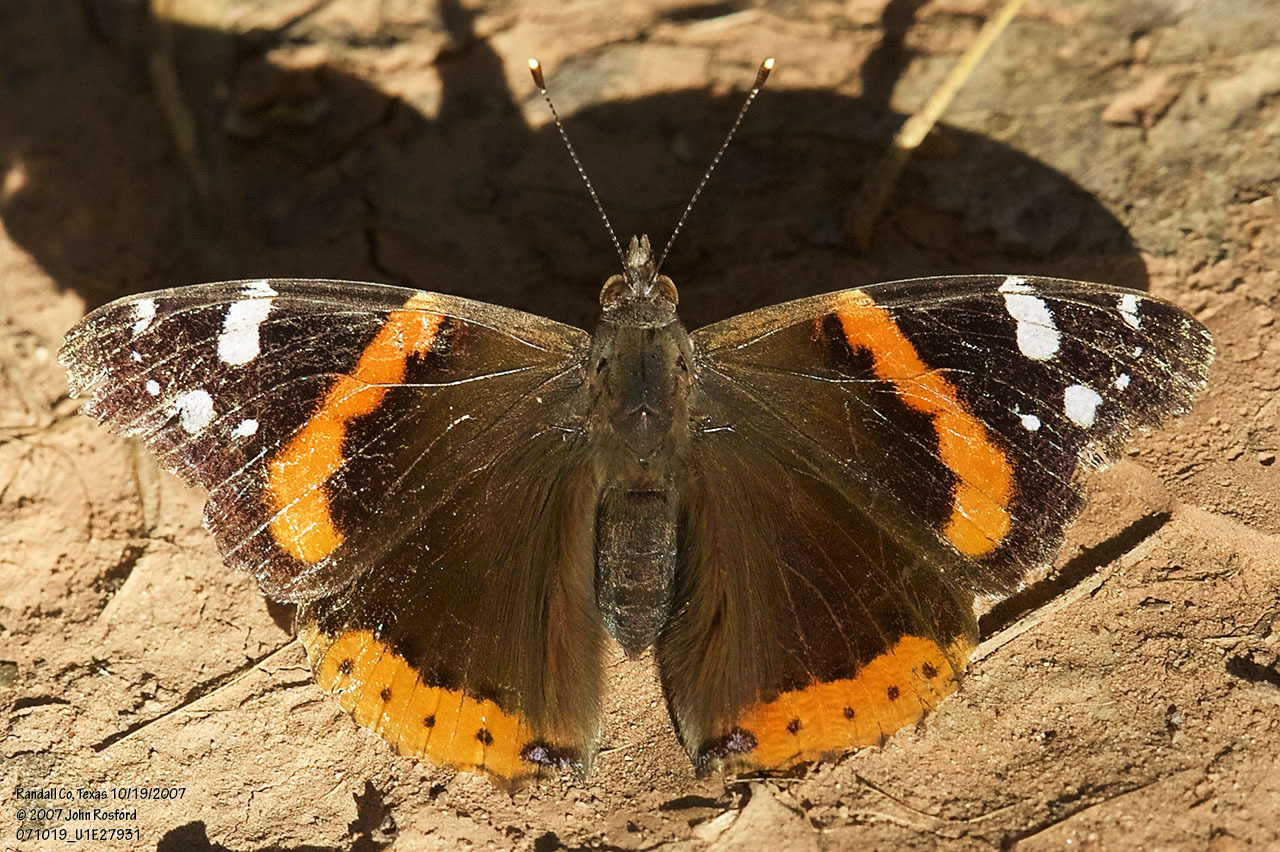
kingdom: Animalia
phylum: Arthropoda
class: Insecta
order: Lepidoptera
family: Nymphalidae
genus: Vanessa
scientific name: Vanessa atalanta
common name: Red admiral
